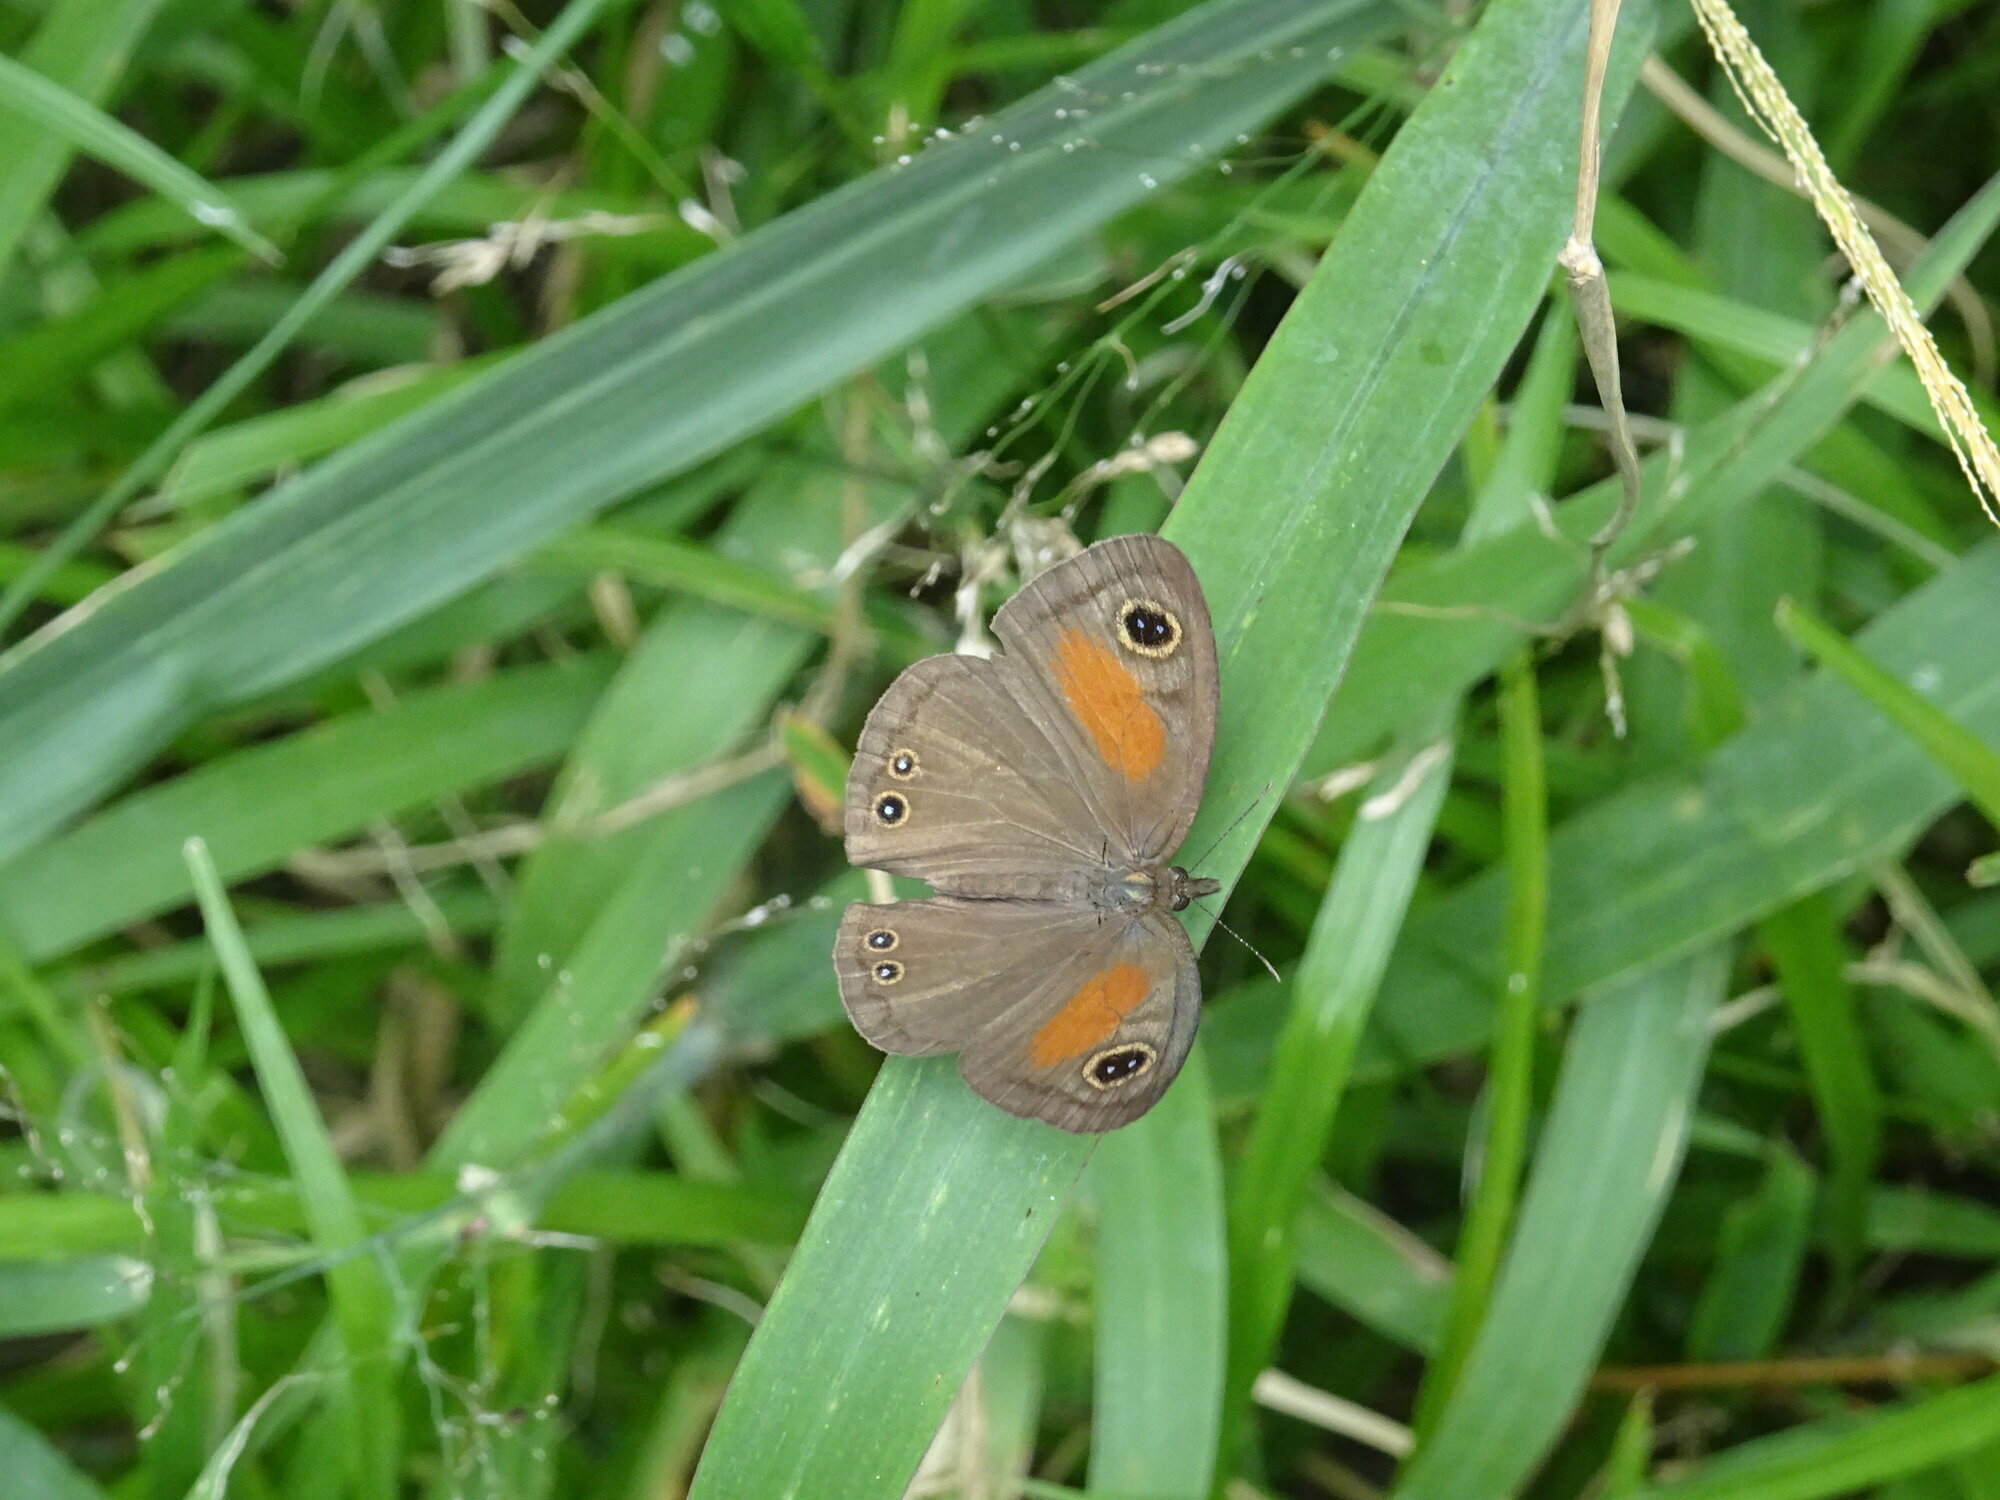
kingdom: Animalia
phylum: Arthropoda
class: Insecta
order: Lepidoptera
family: Nymphalidae
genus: Cassionympha
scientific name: Cassionympha cassius
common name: Rainforest brown
